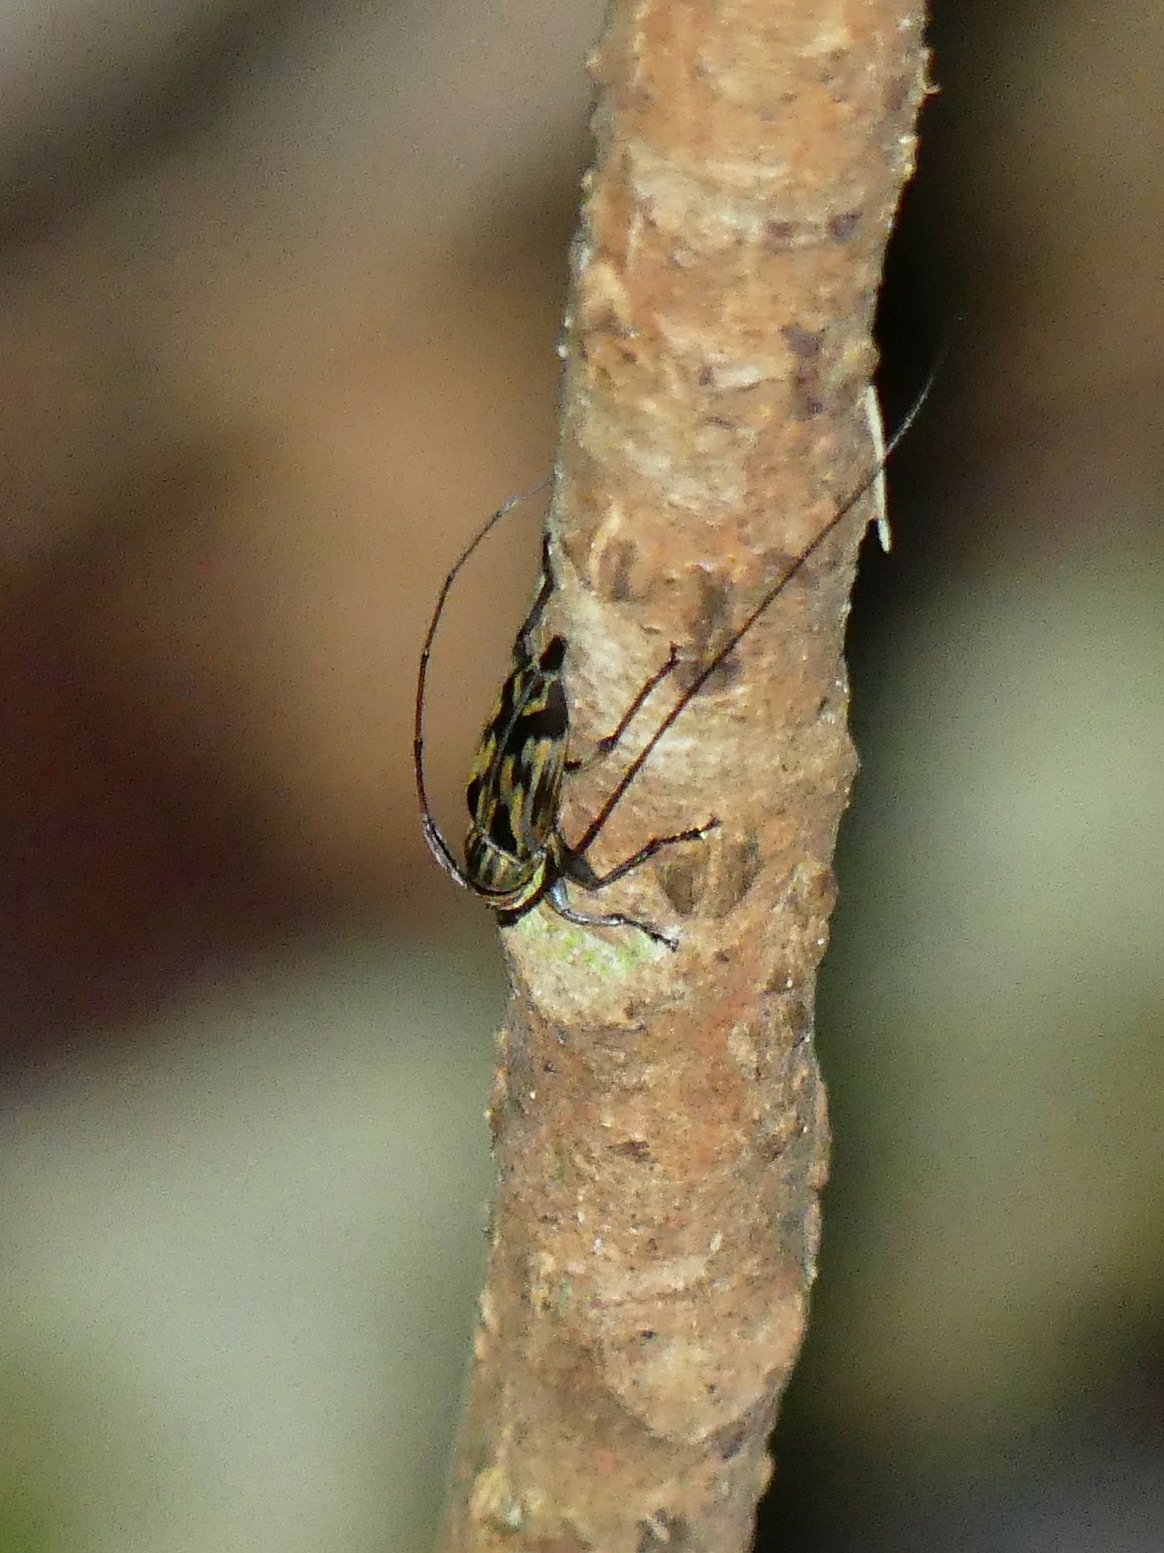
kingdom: Animalia
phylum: Arthropoda
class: Insecta
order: Coleoptera
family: Cerambycidae
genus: Nyssodrysternum
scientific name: Nyssodrysternum
